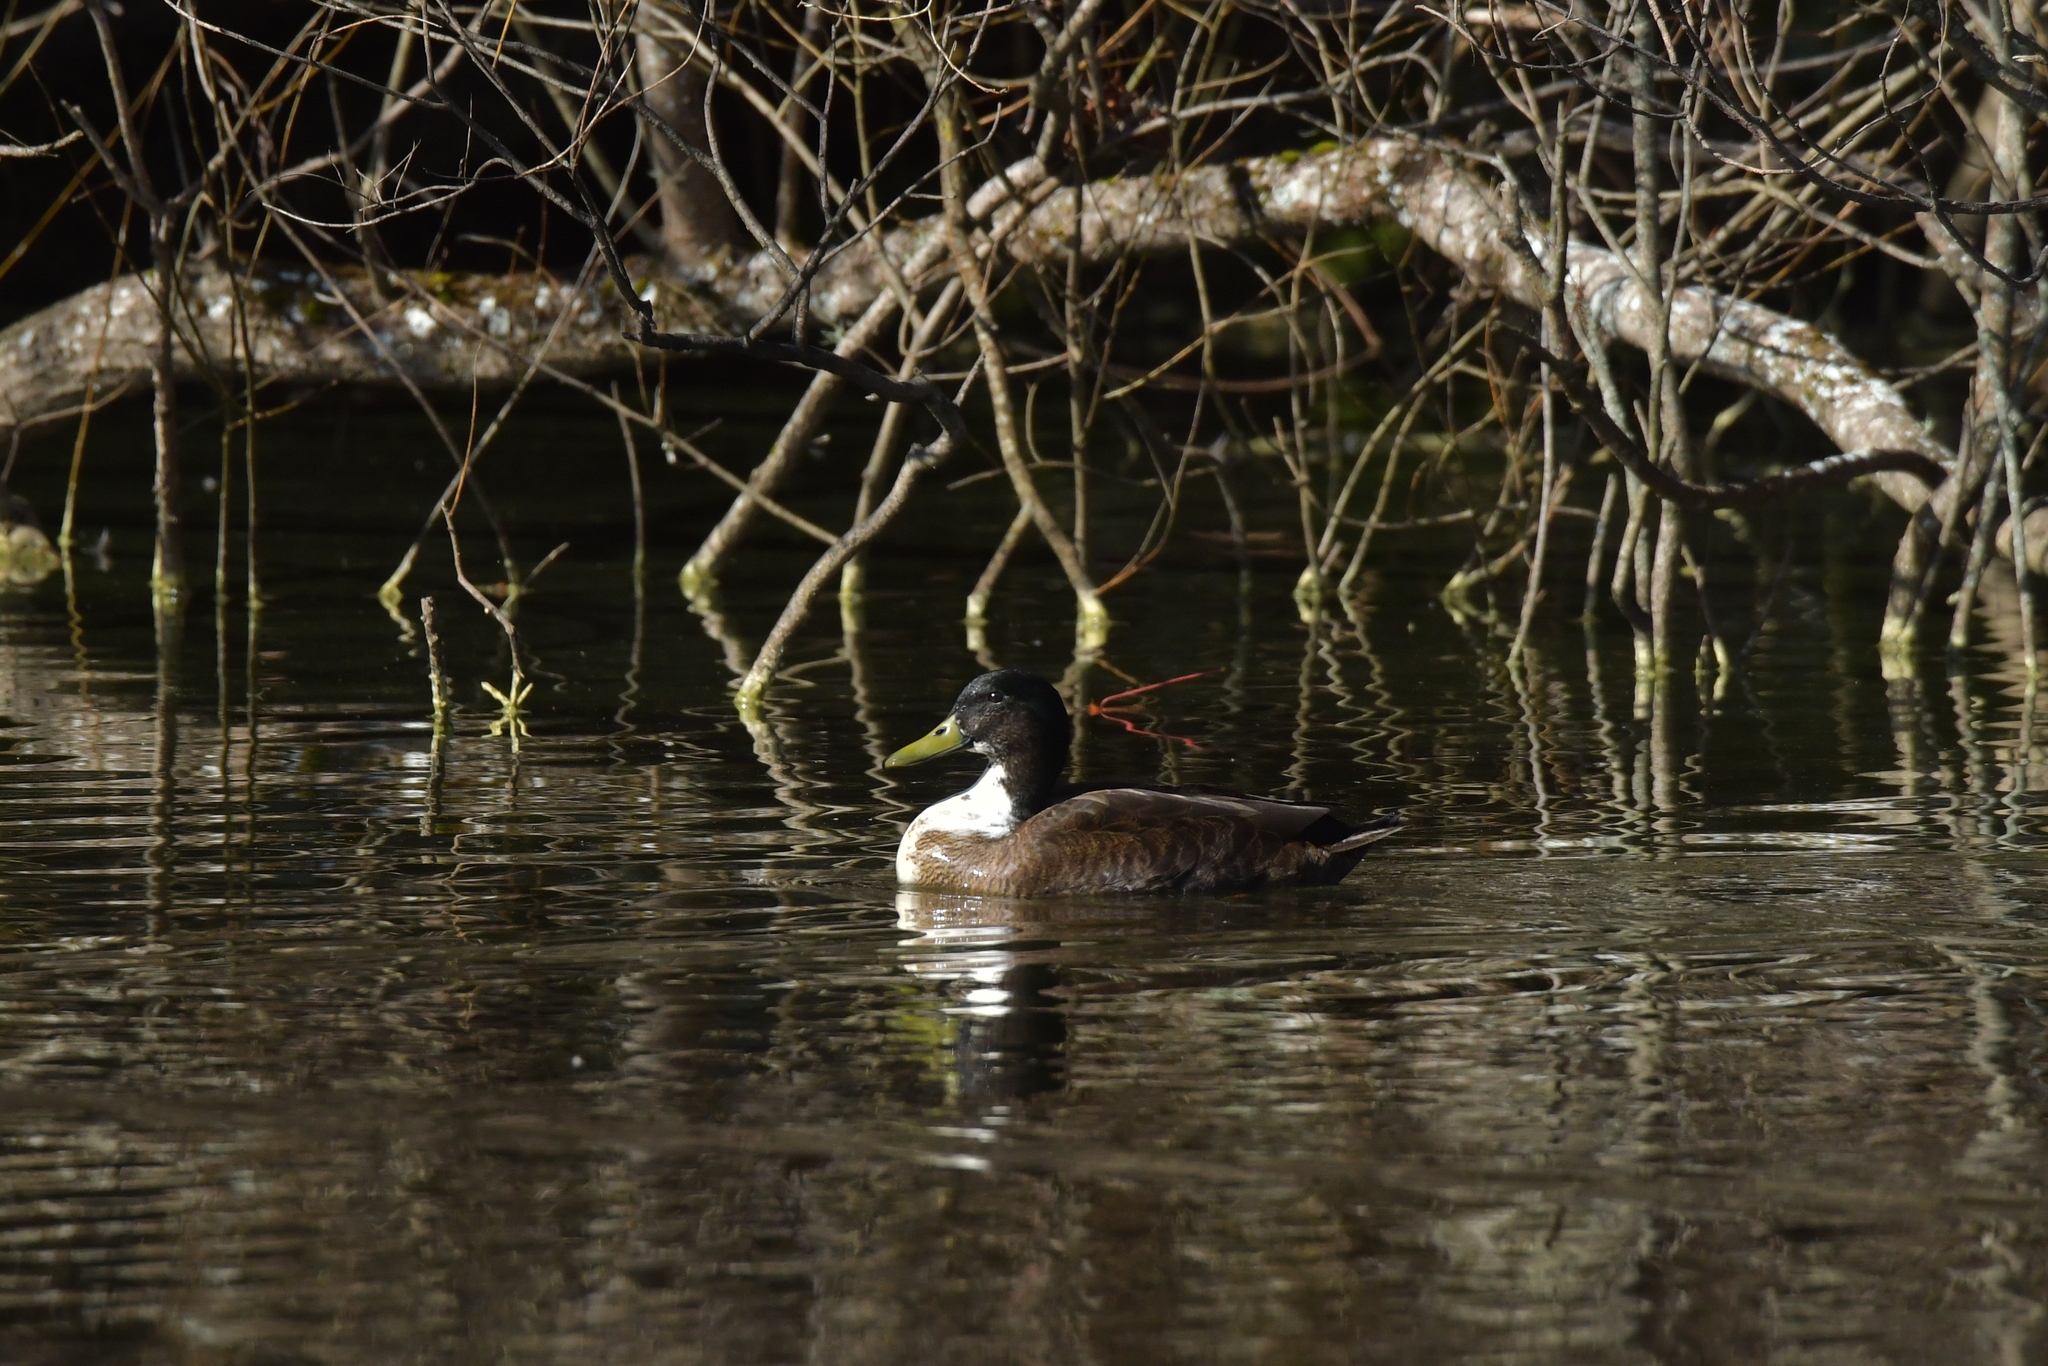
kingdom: Animalia
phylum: Chordata
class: Aves
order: Anseriformes
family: Anatidae
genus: Anas
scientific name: Anas platyrhynchos
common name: Mallard
